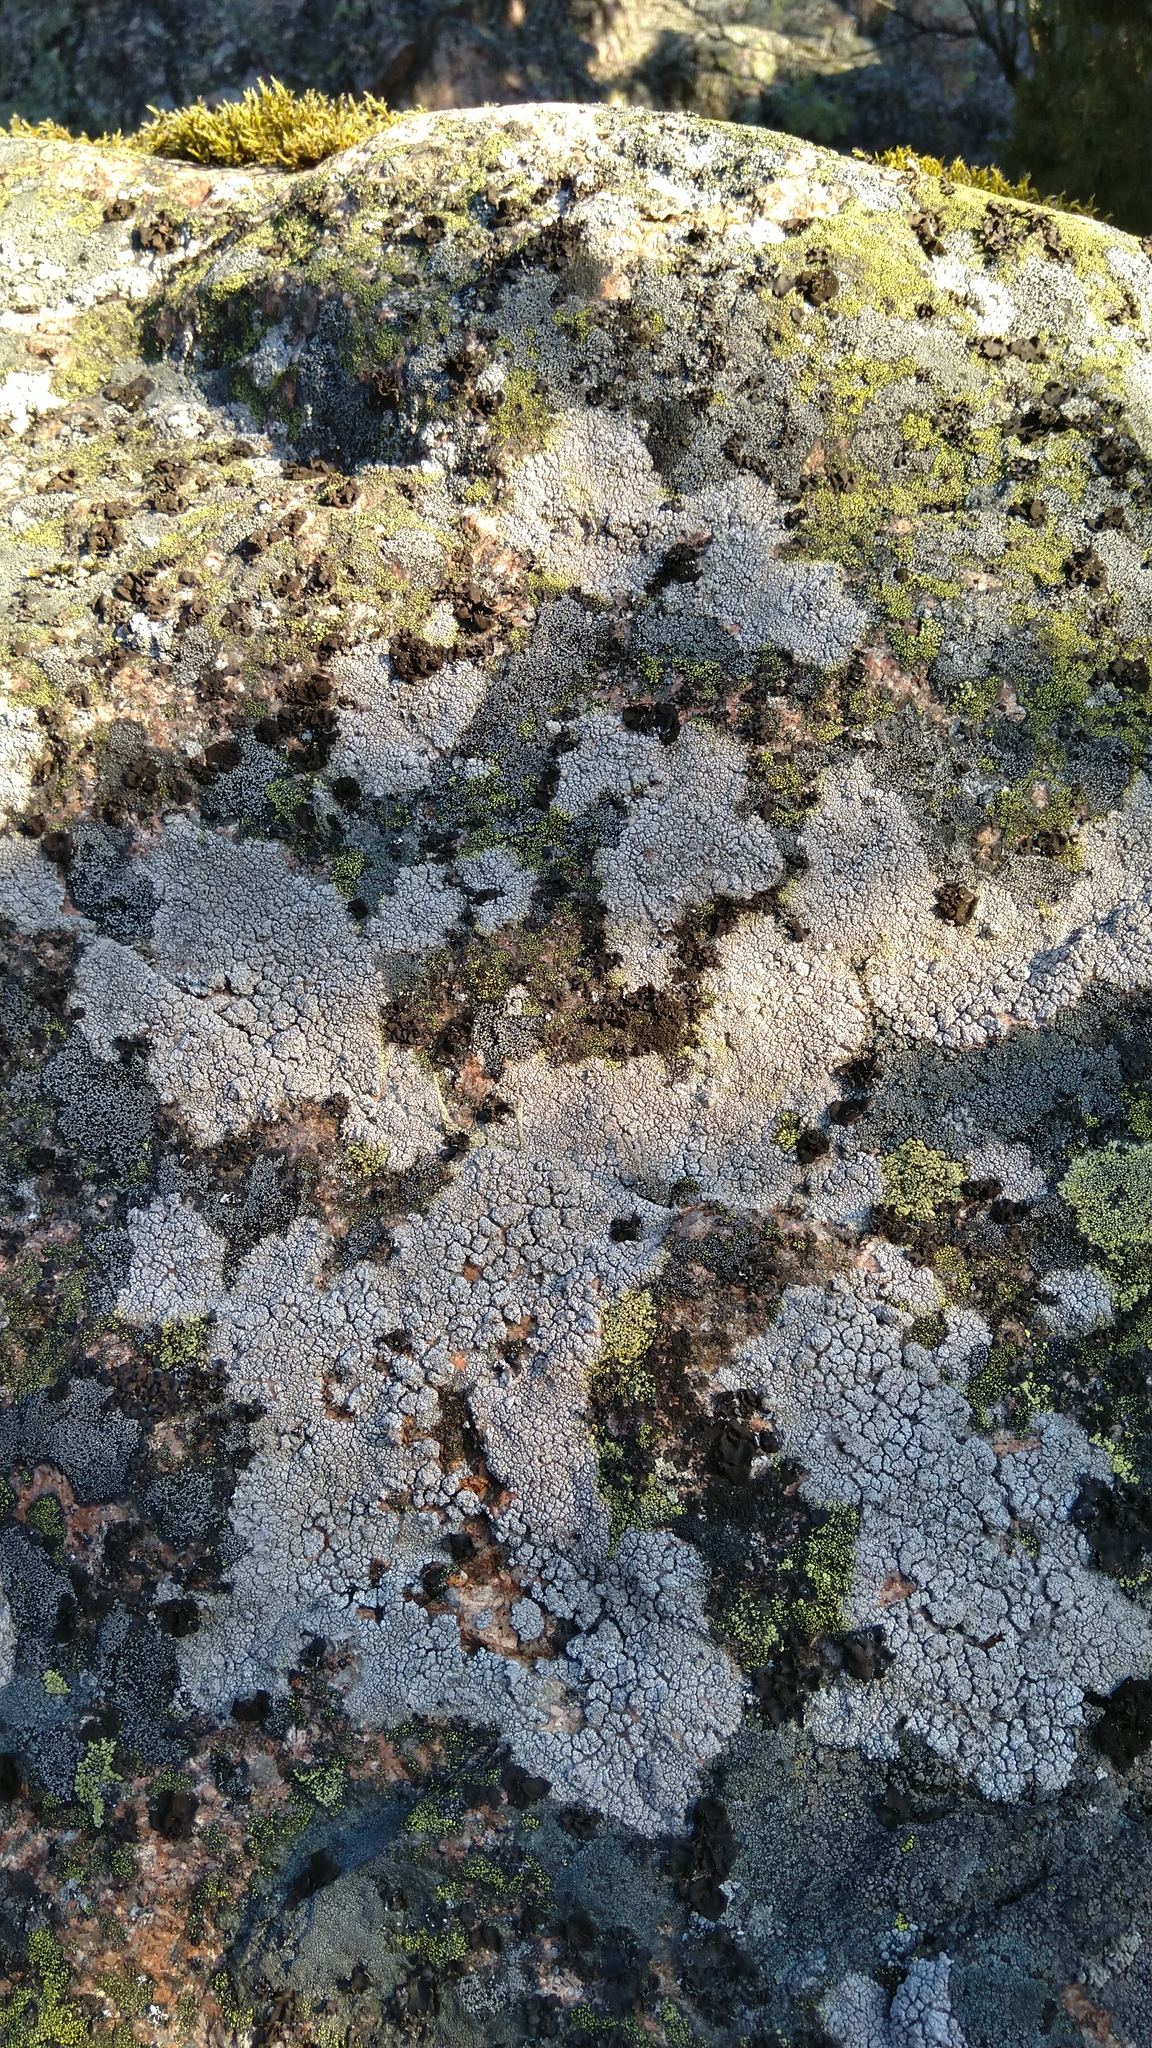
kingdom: Fungi
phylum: Ascomycota
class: Lecanoromycetes
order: Ostropales
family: Graphidaceae
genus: Diploschistes
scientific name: Diploschistes scruposus
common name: Crater lichen
